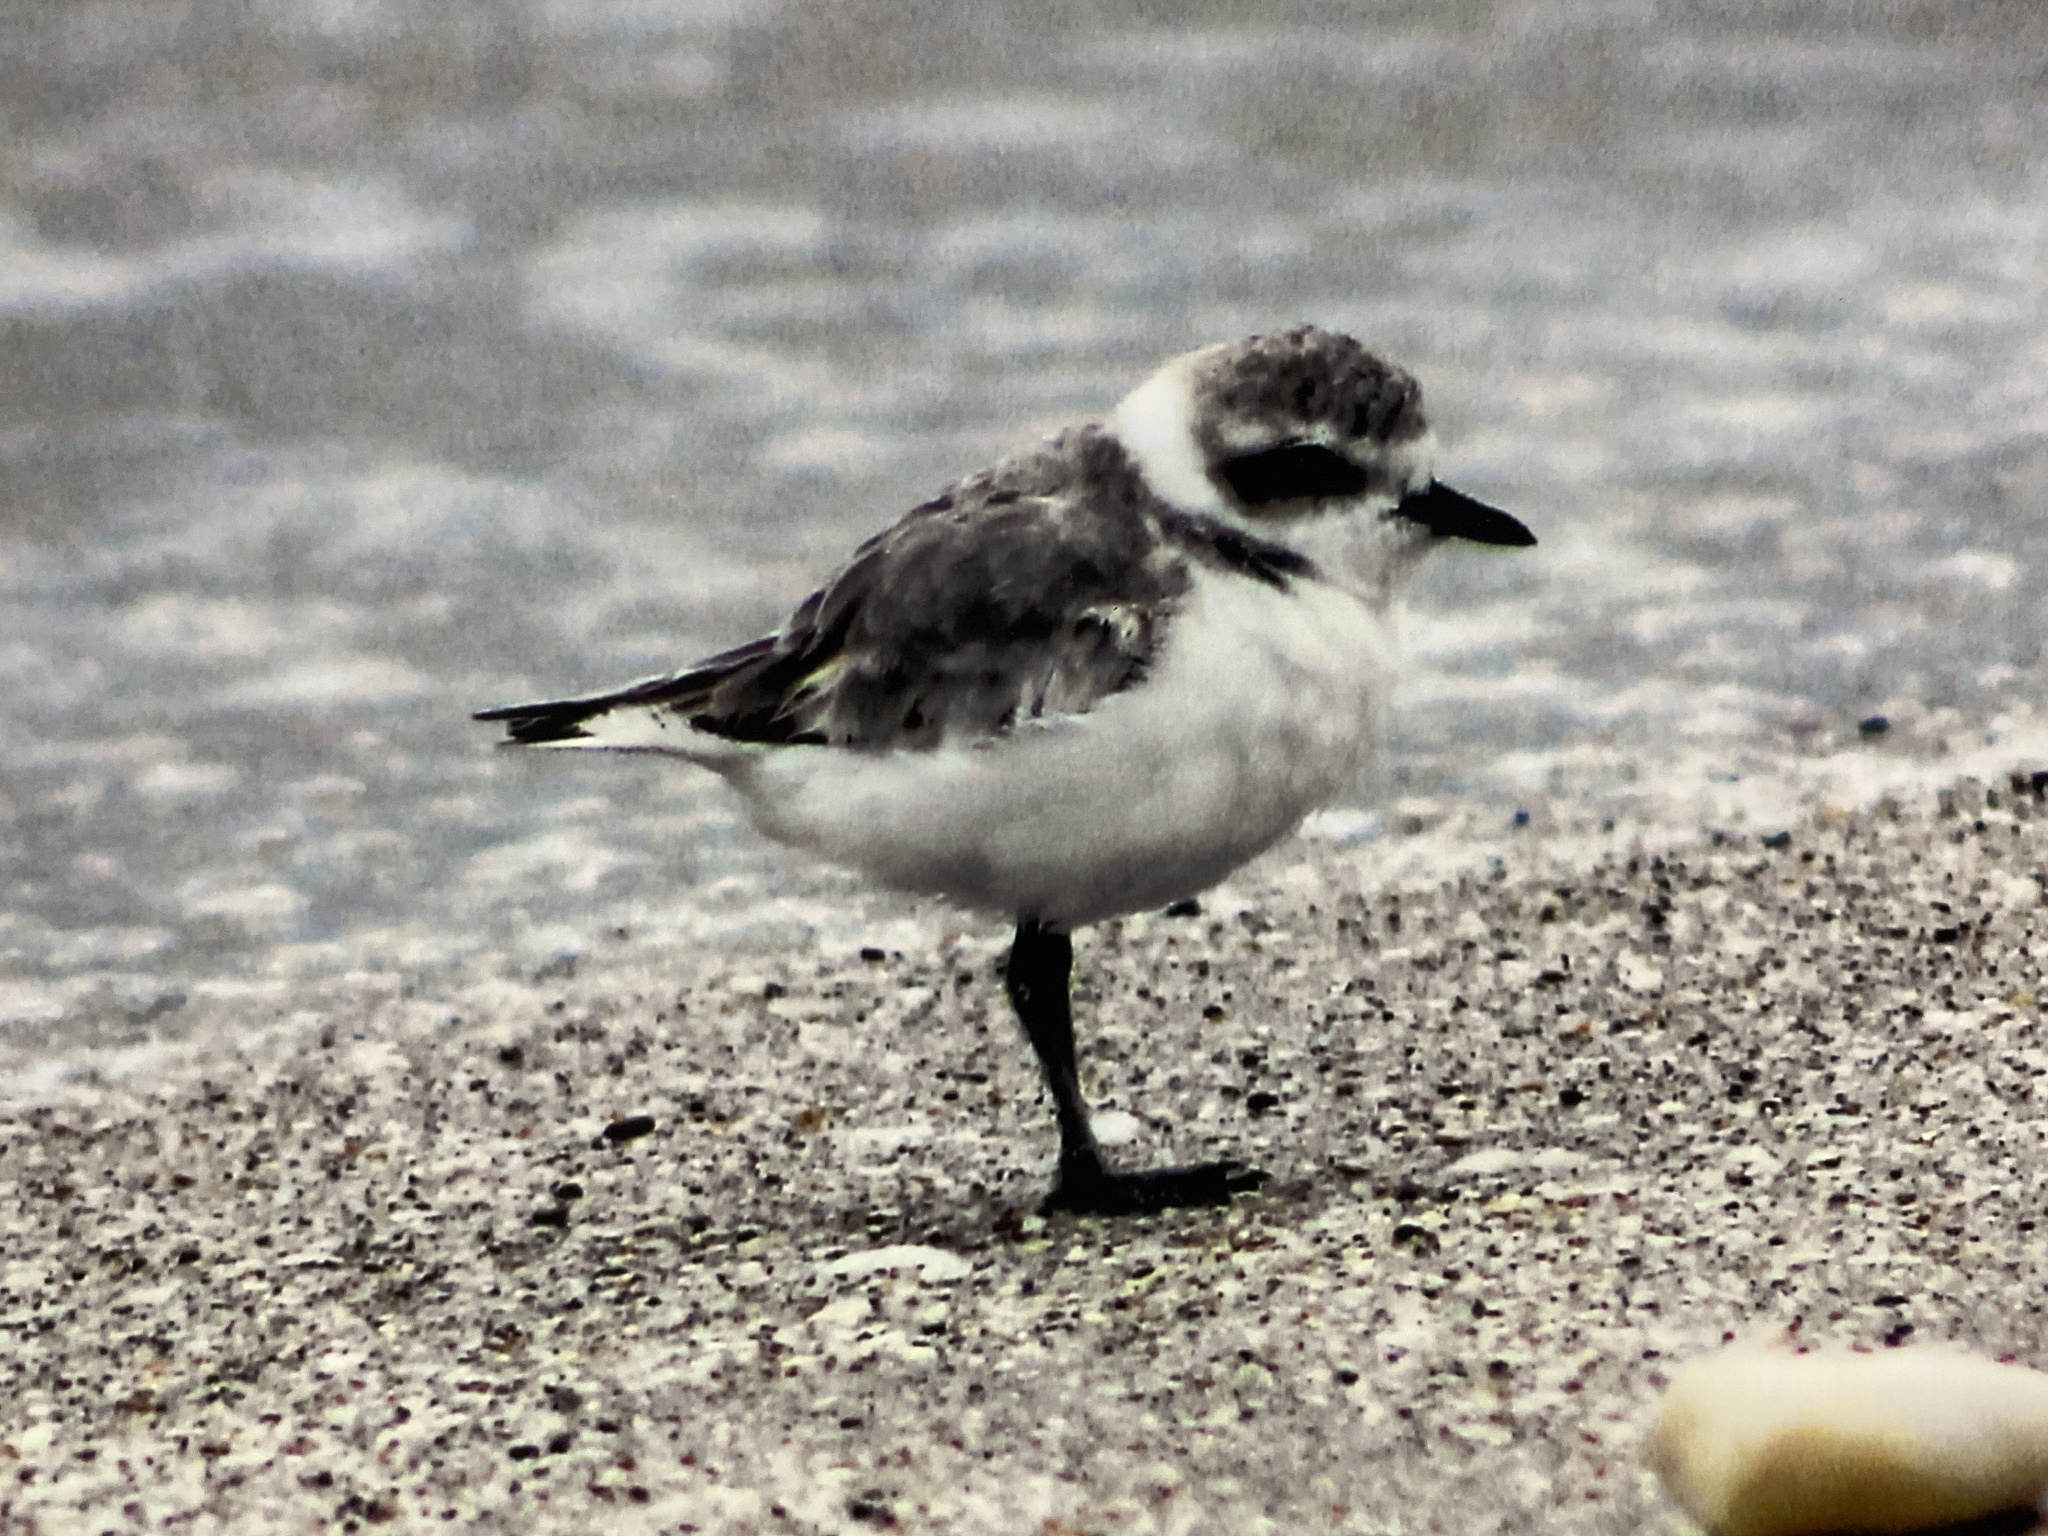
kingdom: Animalia
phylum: Chordata
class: Aves
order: Charadriiformes
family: Charadriidae
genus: Anarhynchus
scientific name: Anarhynchus
